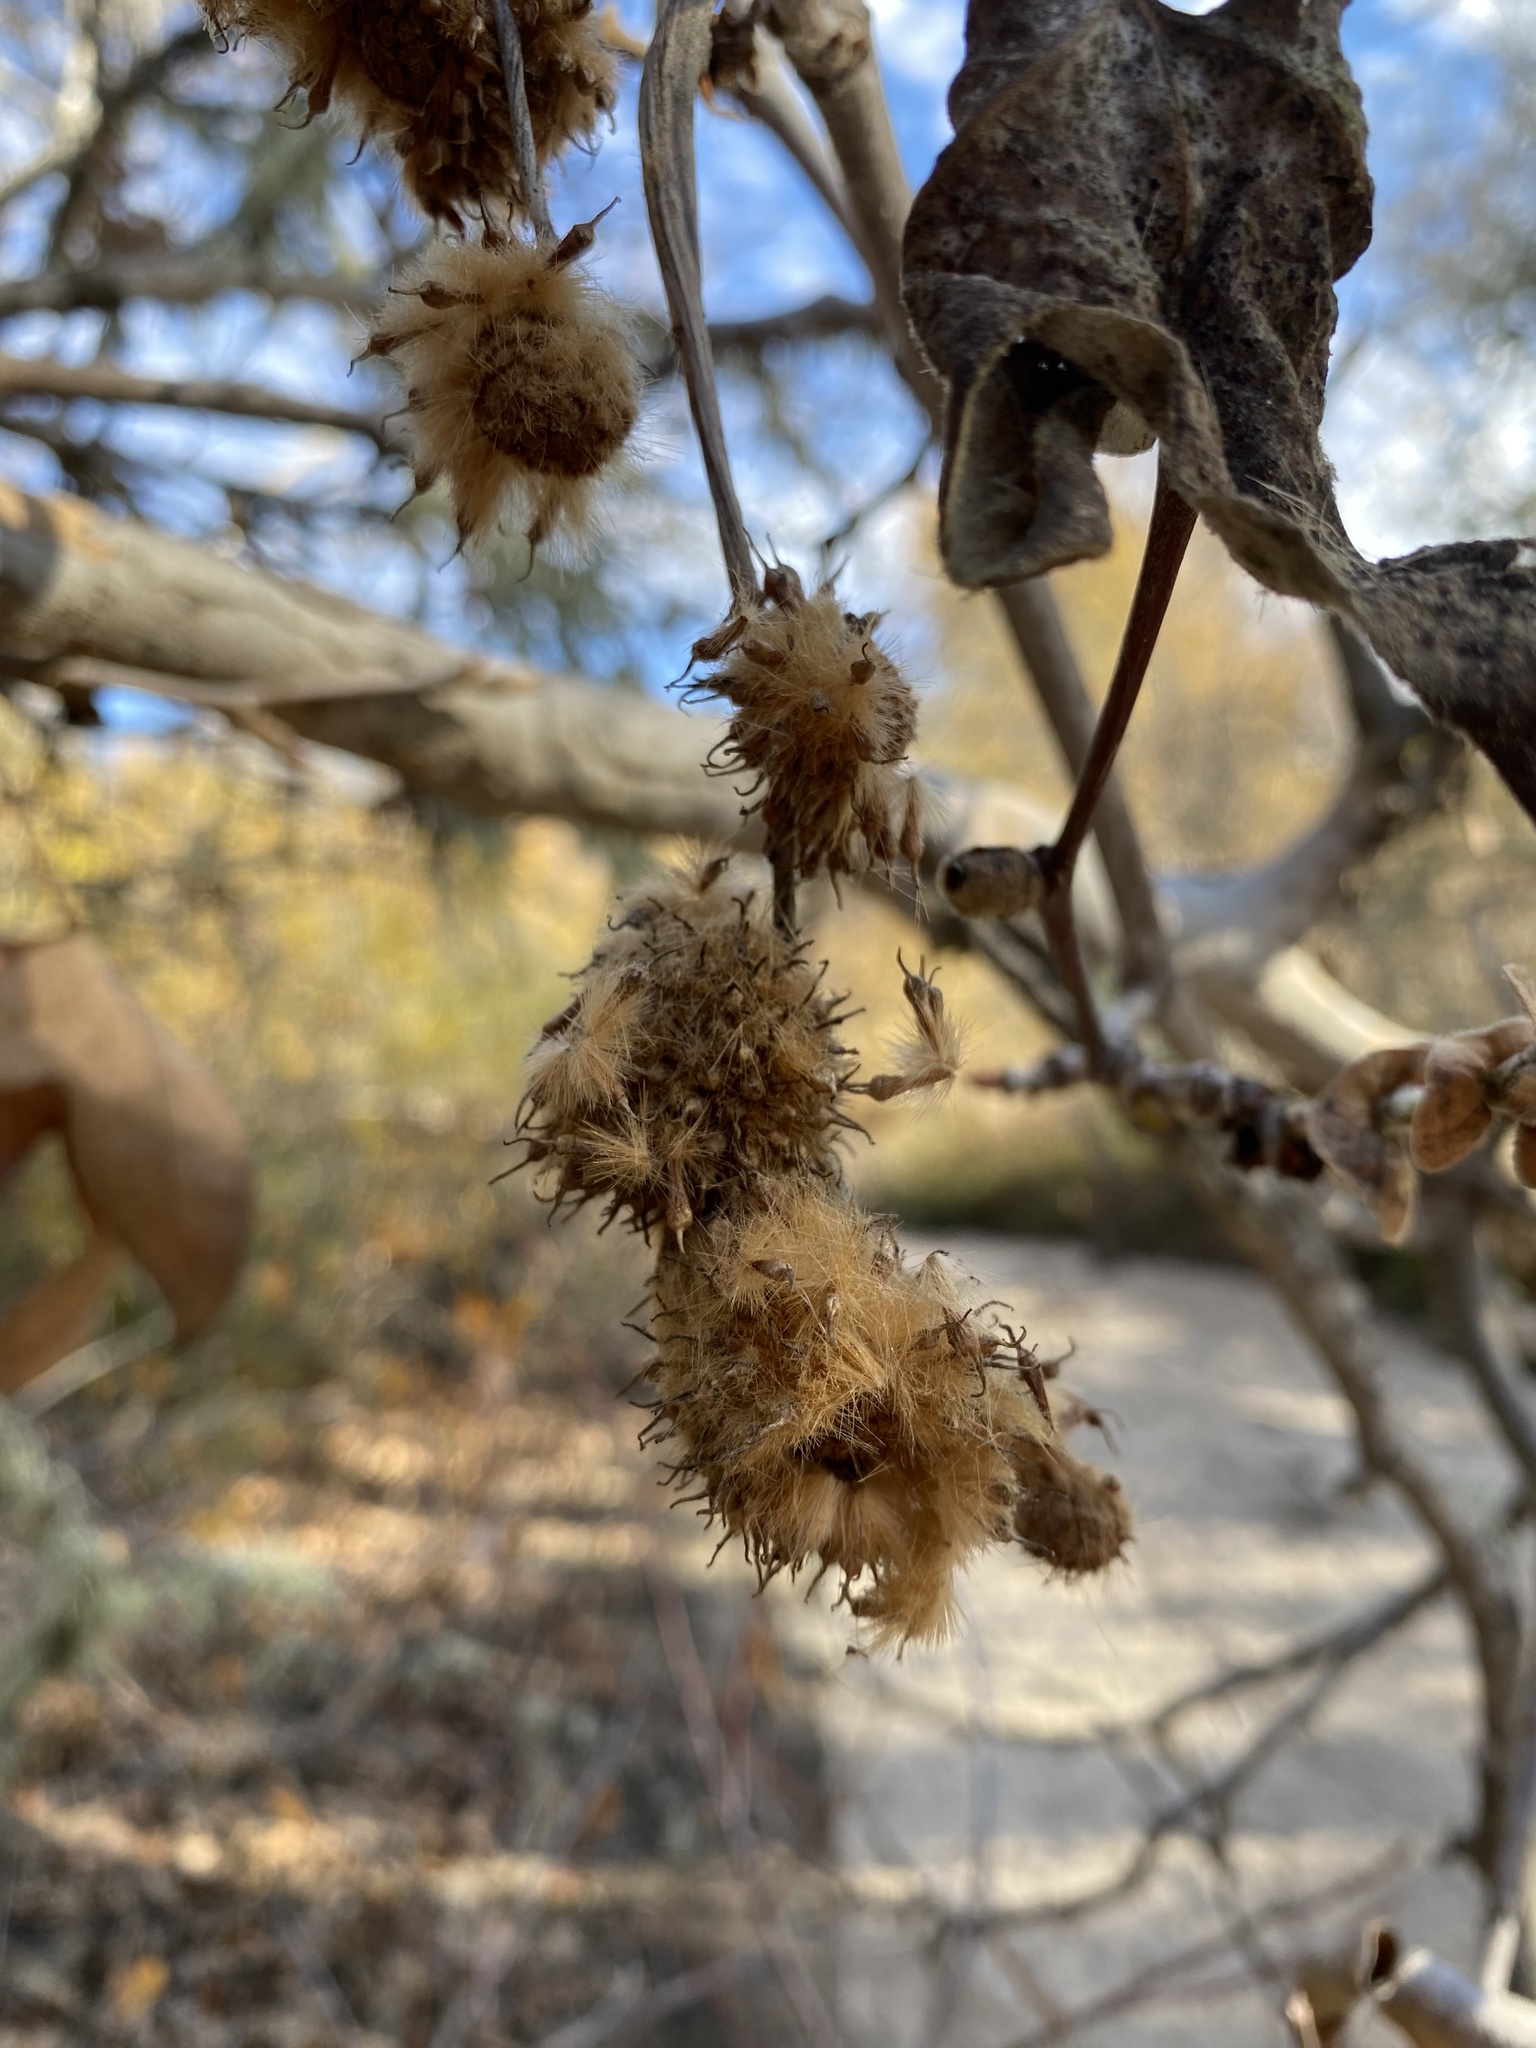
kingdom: Plantae
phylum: Tracheophyta
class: Magnoliopsida
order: Proteales
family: Platanaceae
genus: Platanus
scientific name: Platanus racemosa
